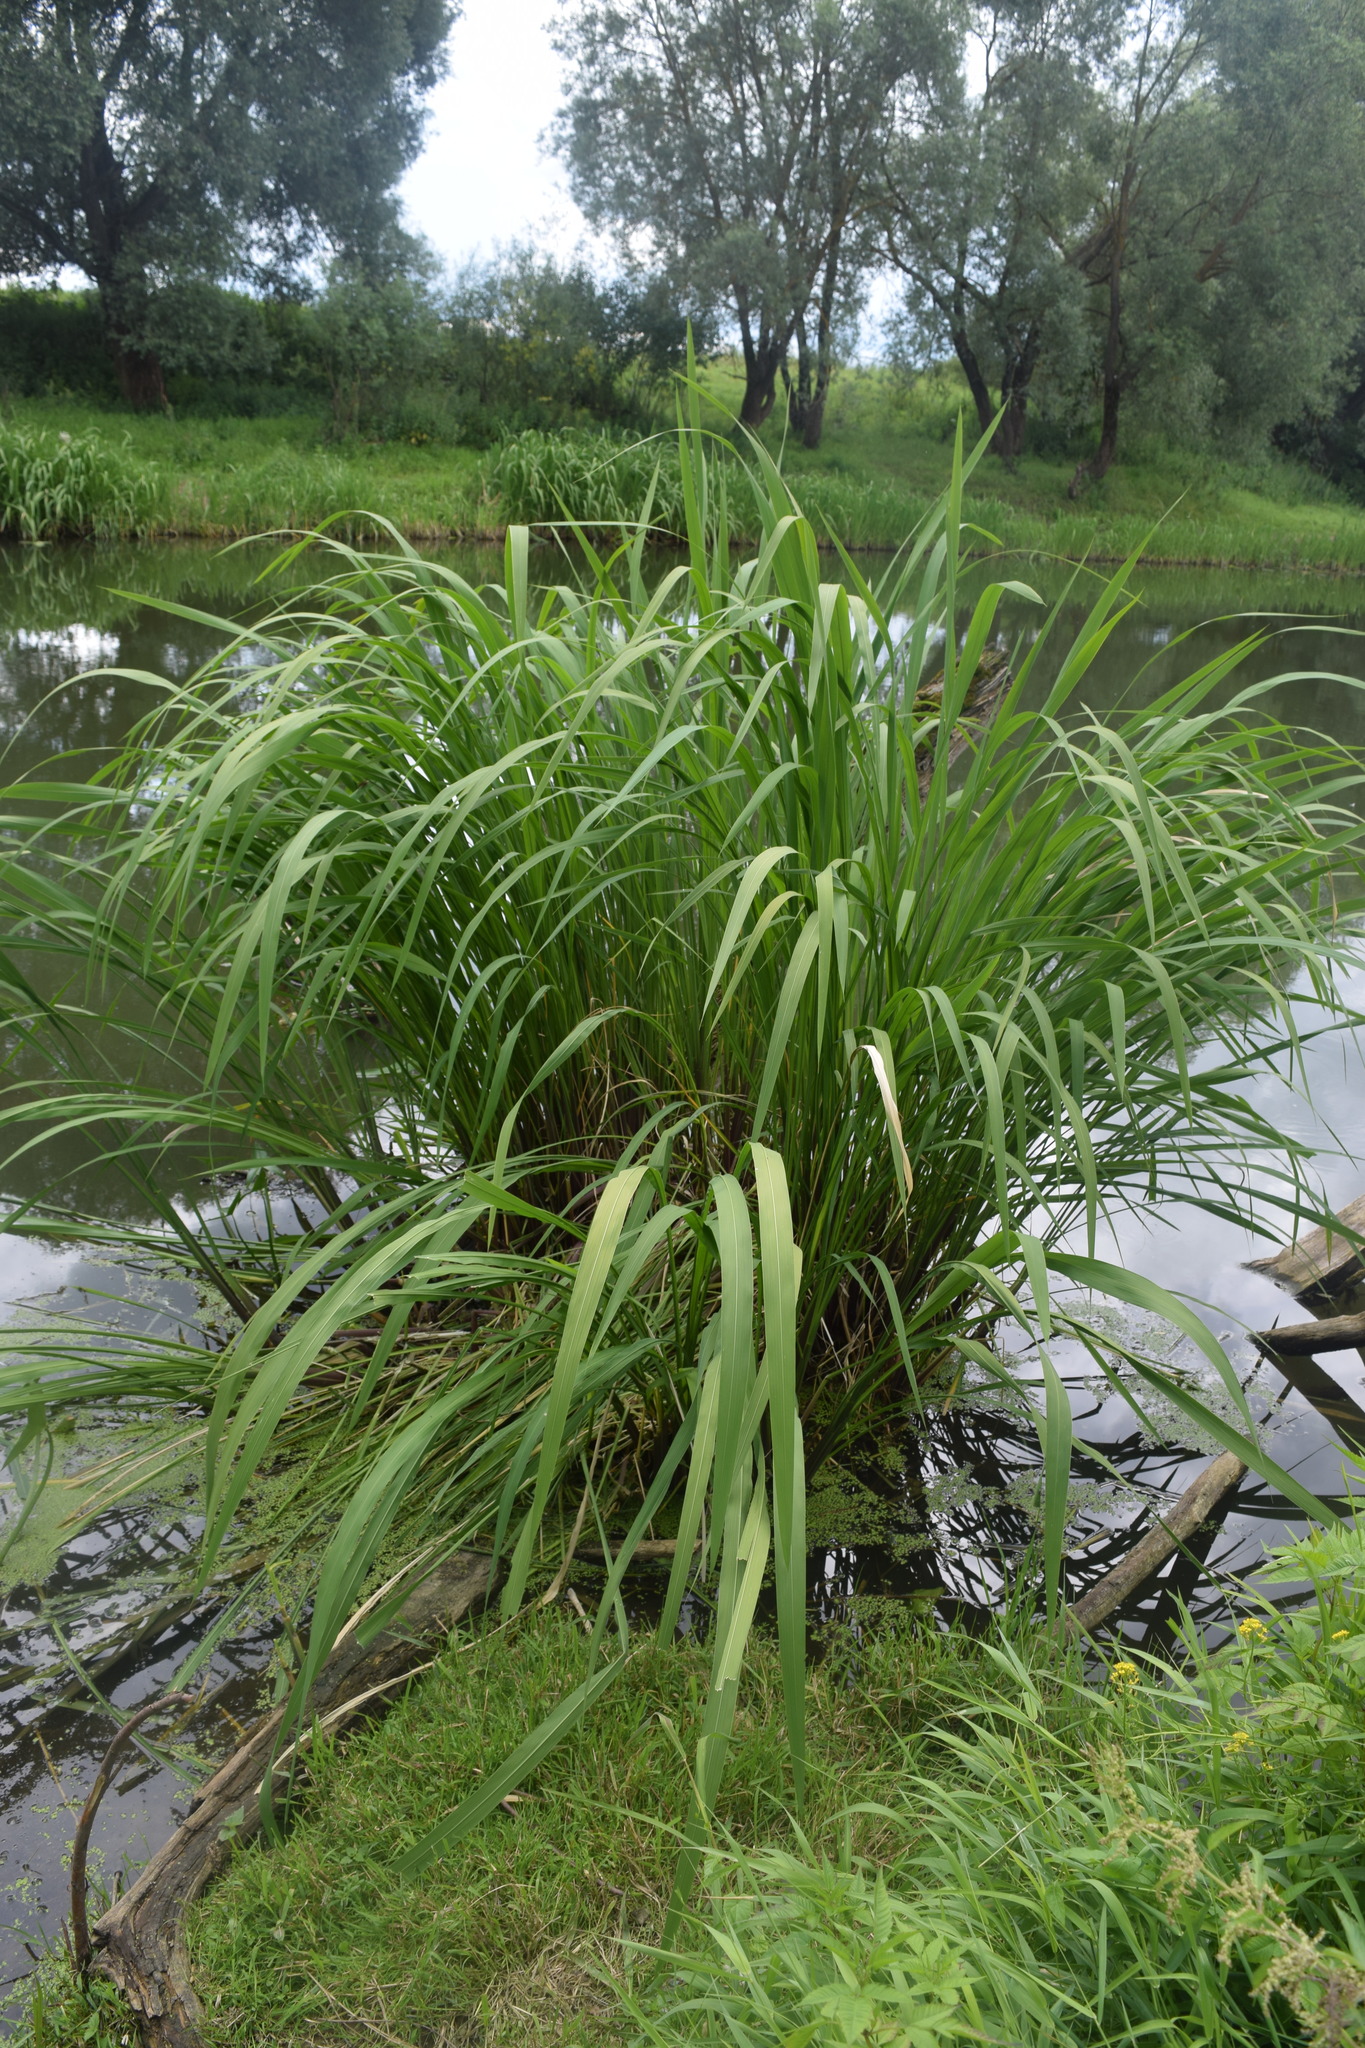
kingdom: Plantae
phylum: Tracheophyta
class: Liliopsida
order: Poales
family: Poaceae
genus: Zizania
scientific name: Zizania latifolia
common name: Manchurian wildrice
